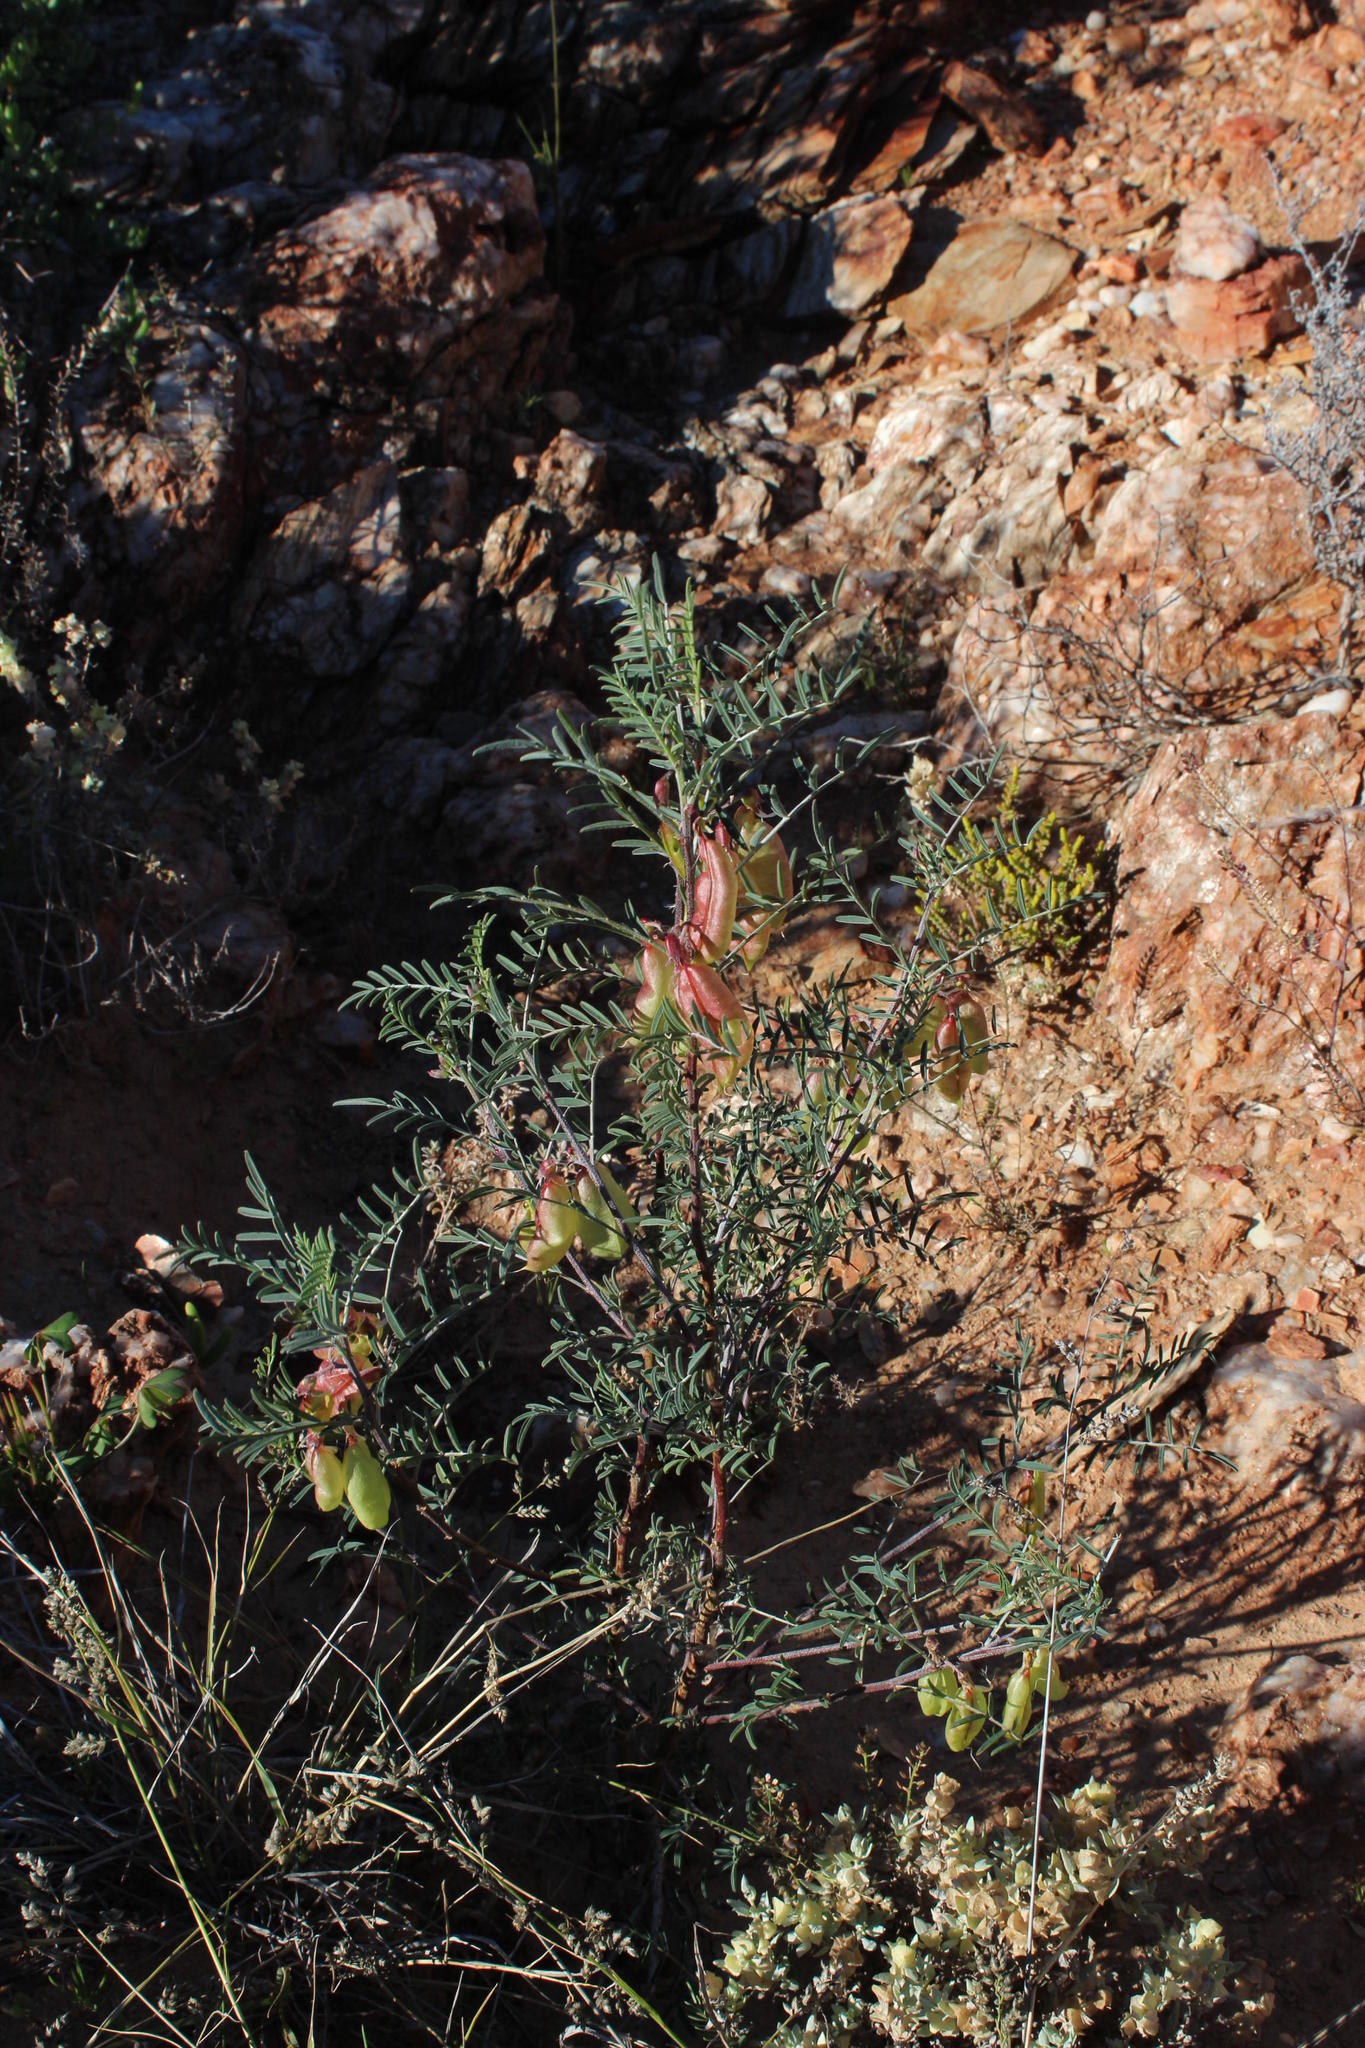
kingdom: Plantae
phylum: Tracheophyta
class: Magnoliopsida
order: Fabales
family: Fabaceae
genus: Lessertia
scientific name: Lessertia frutescens
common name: Balloon-pea
